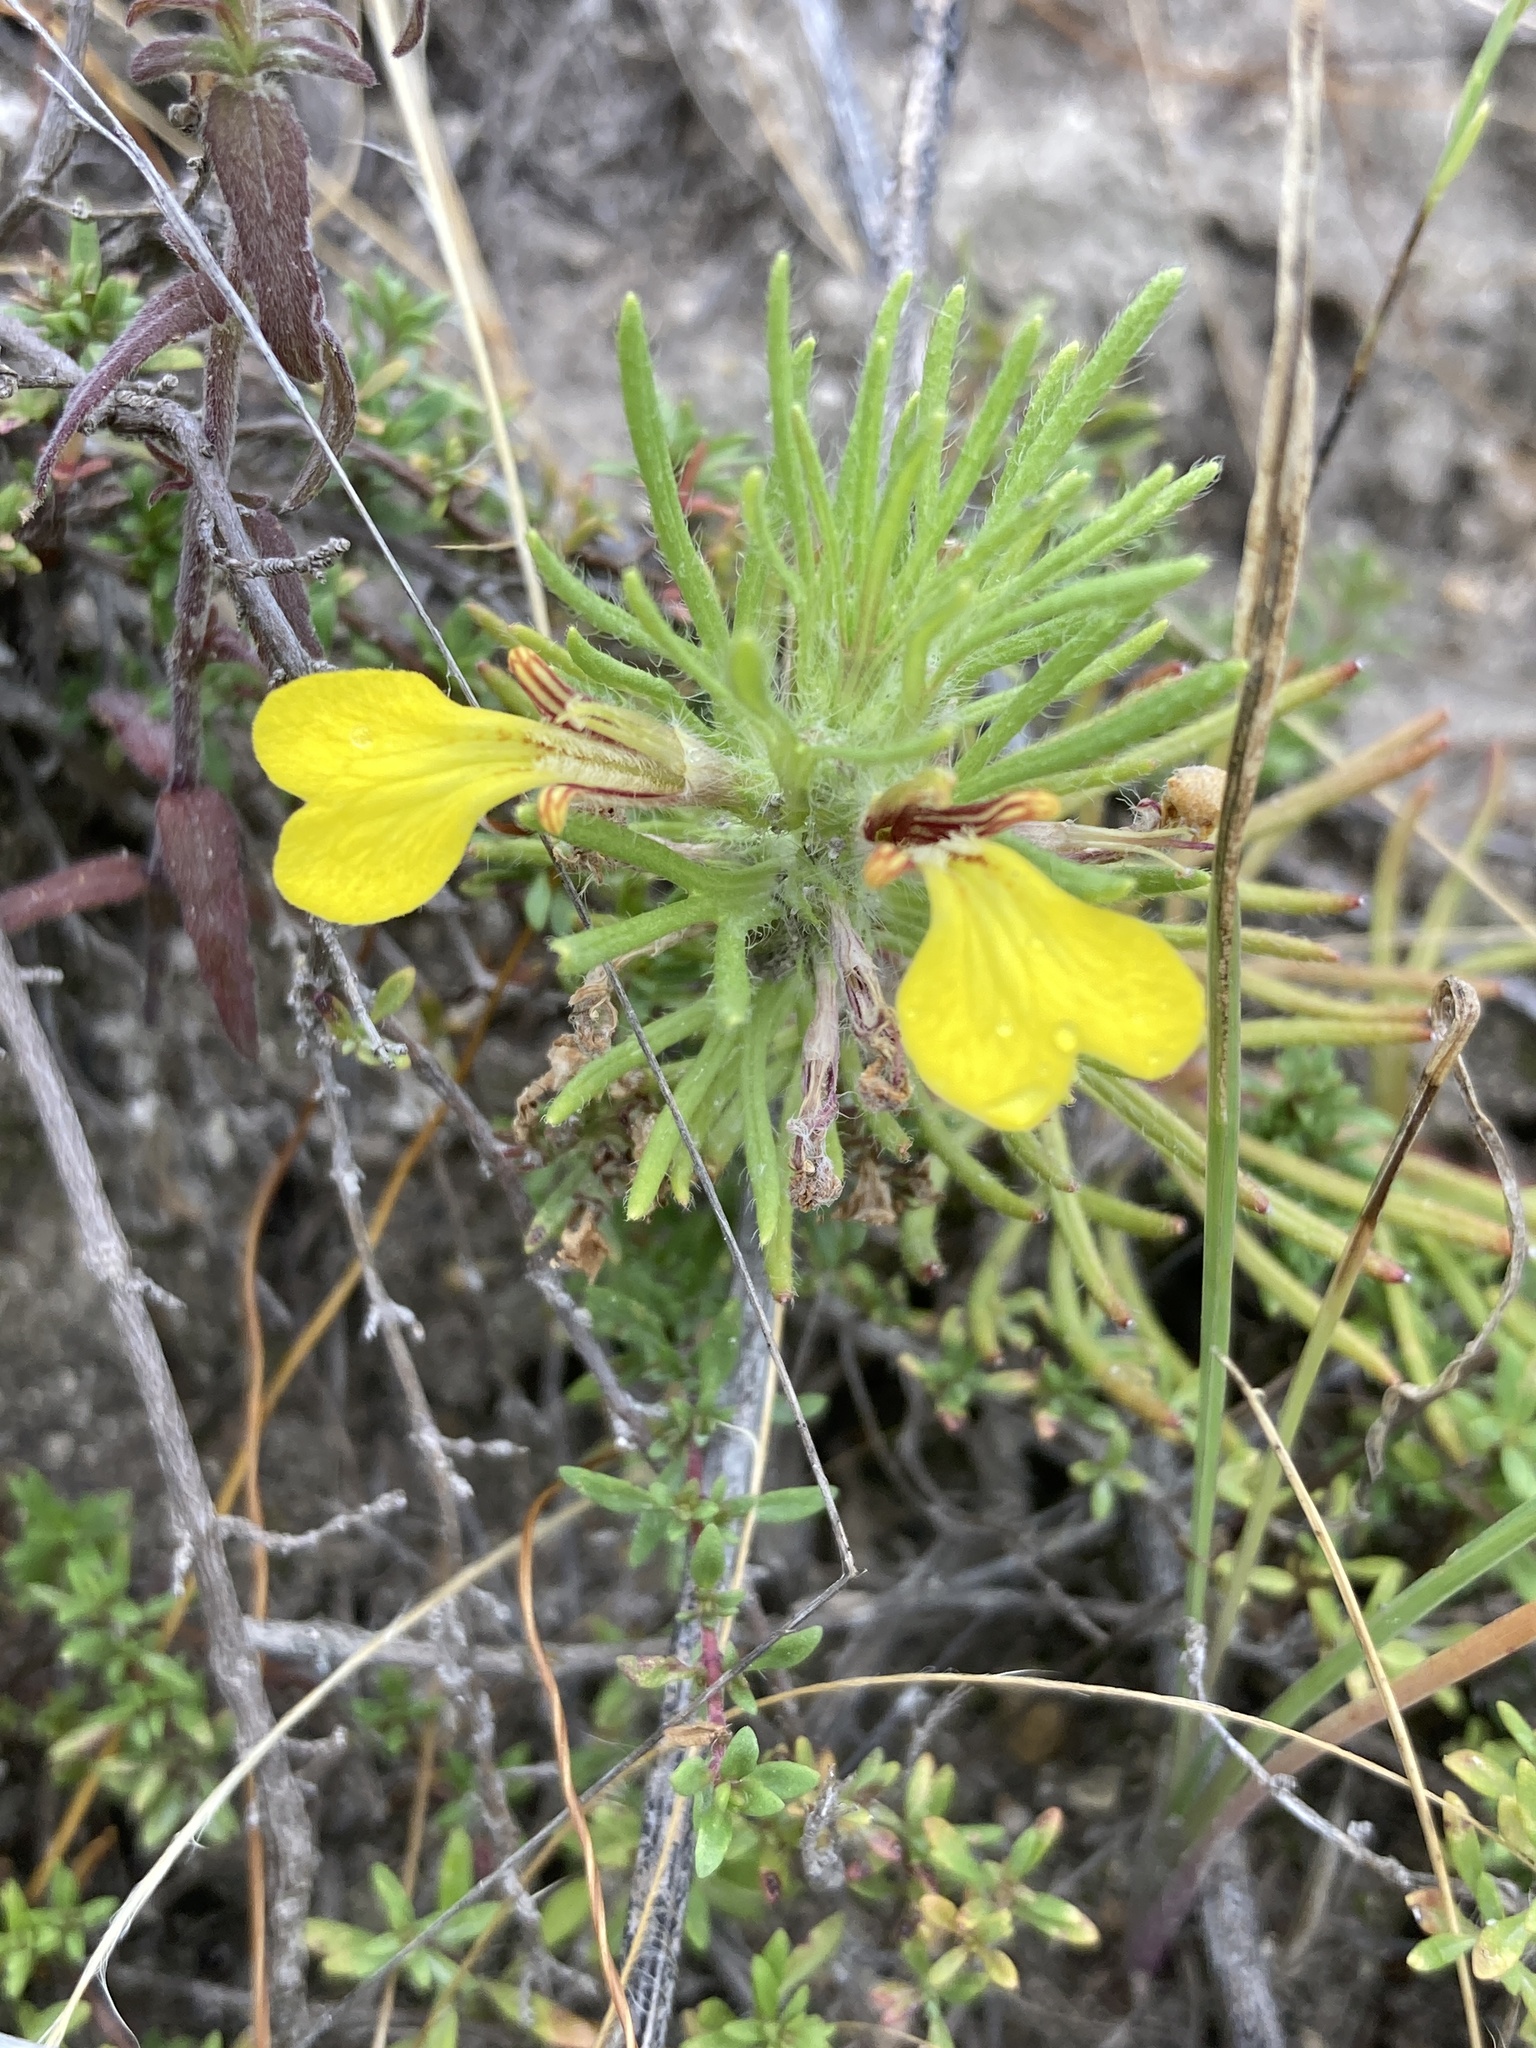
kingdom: Plantae
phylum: Tracheophyta
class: Magnoliopsida
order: Lamiales
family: Lamiaceae
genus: Ajuga
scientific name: Ajuga chamaepitys
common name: Ground-pine
